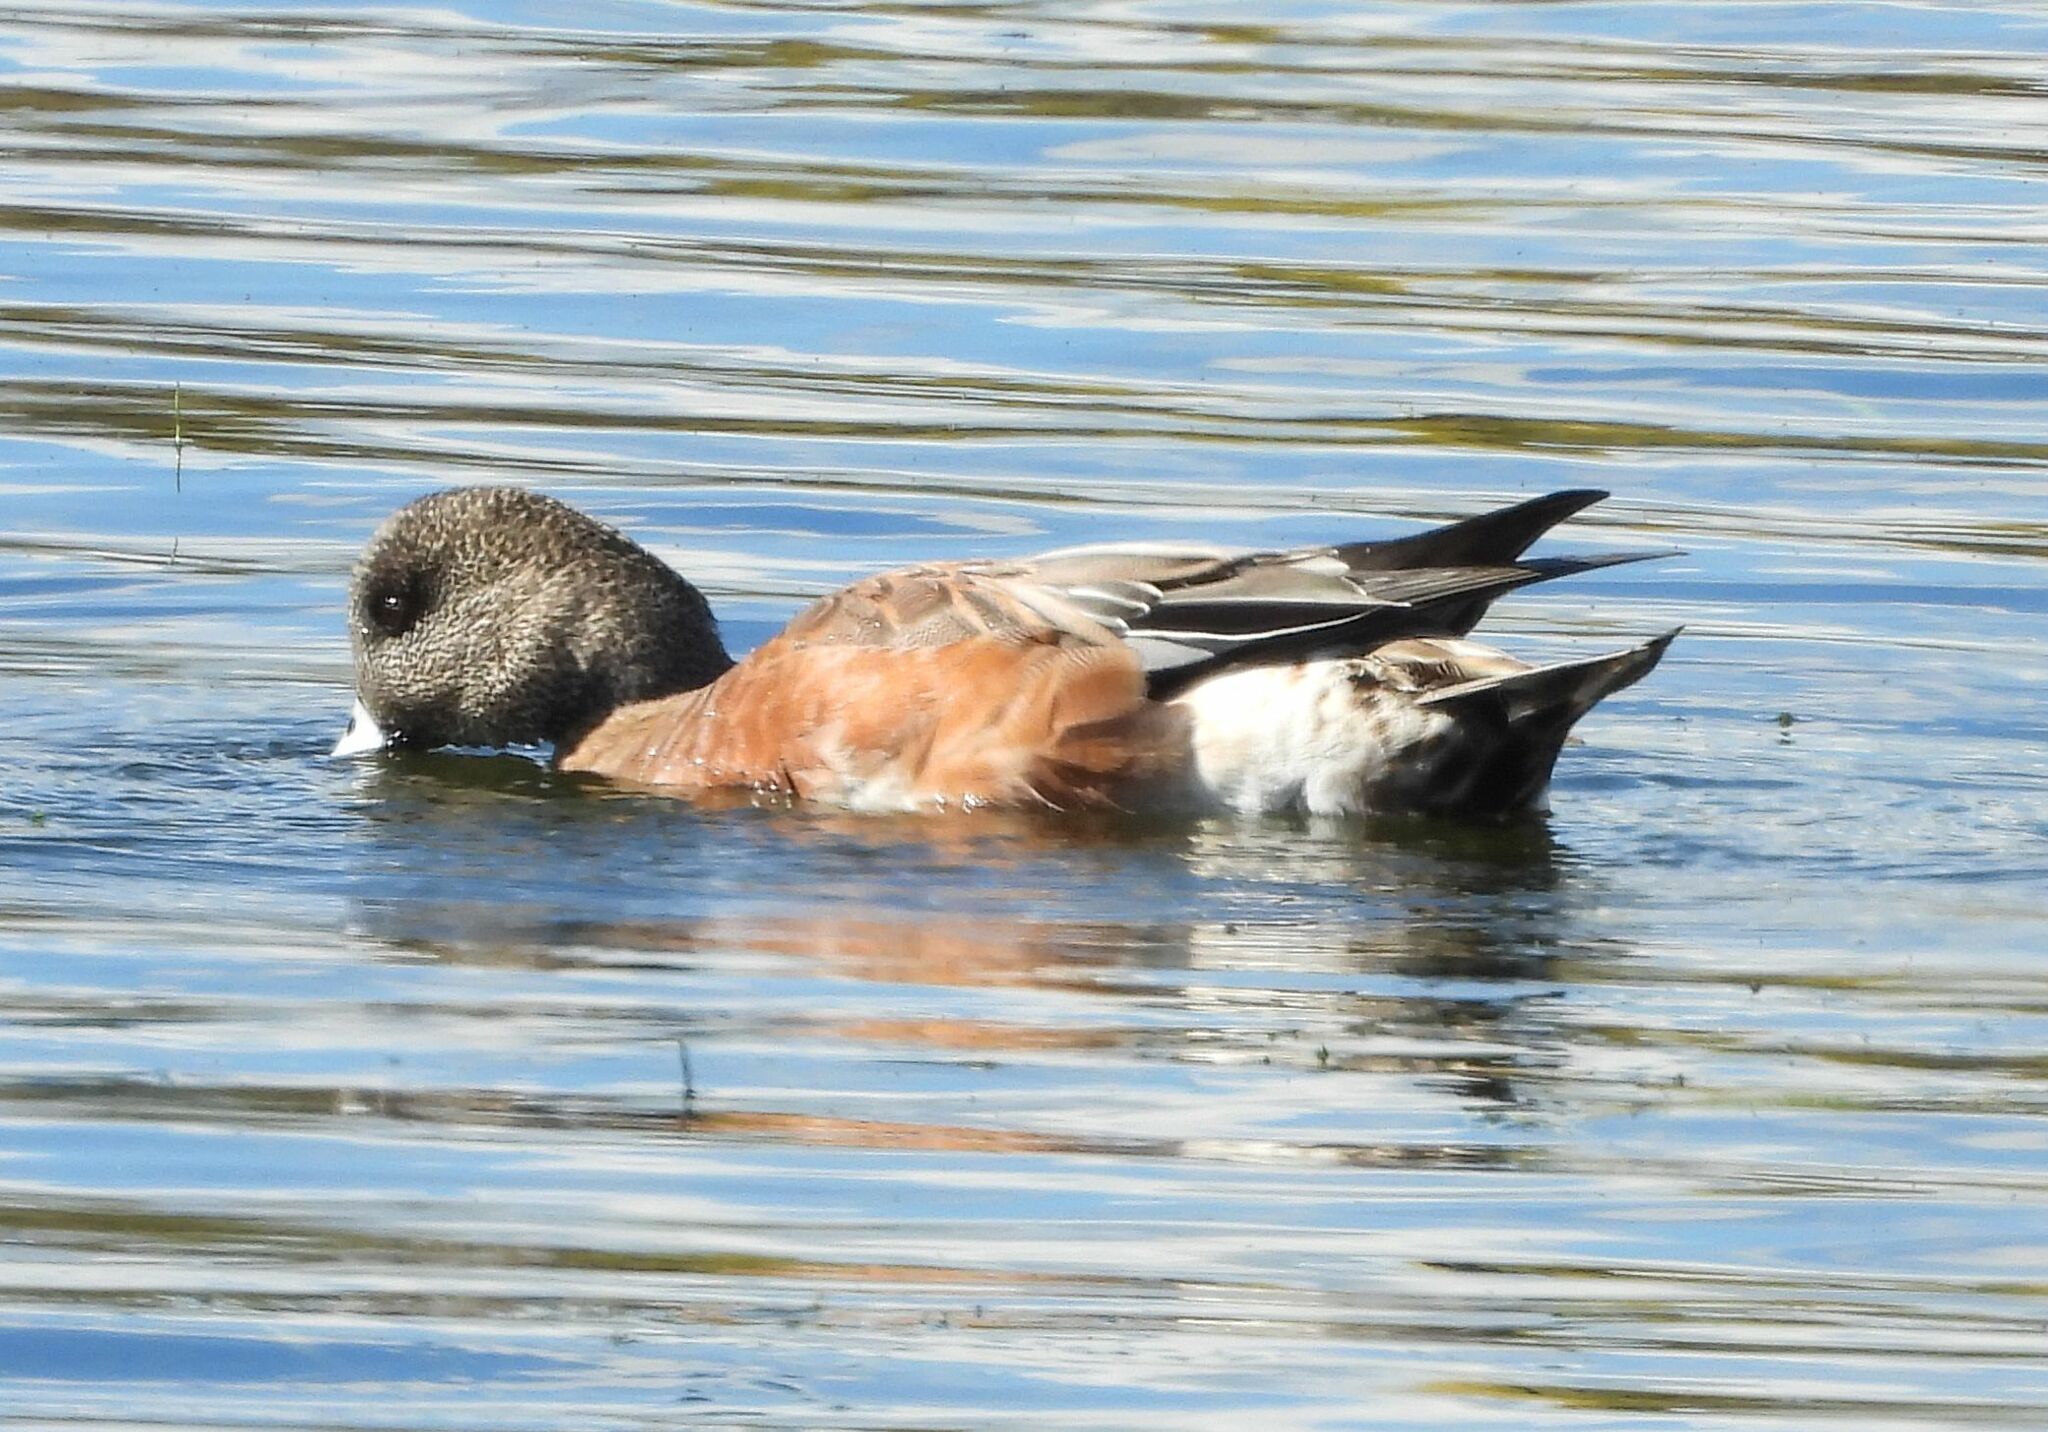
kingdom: Animalia
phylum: Chordata
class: Aves
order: Anseriformes
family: Anatidae
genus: Mareca
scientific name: Mareca americana
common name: American wigeon
